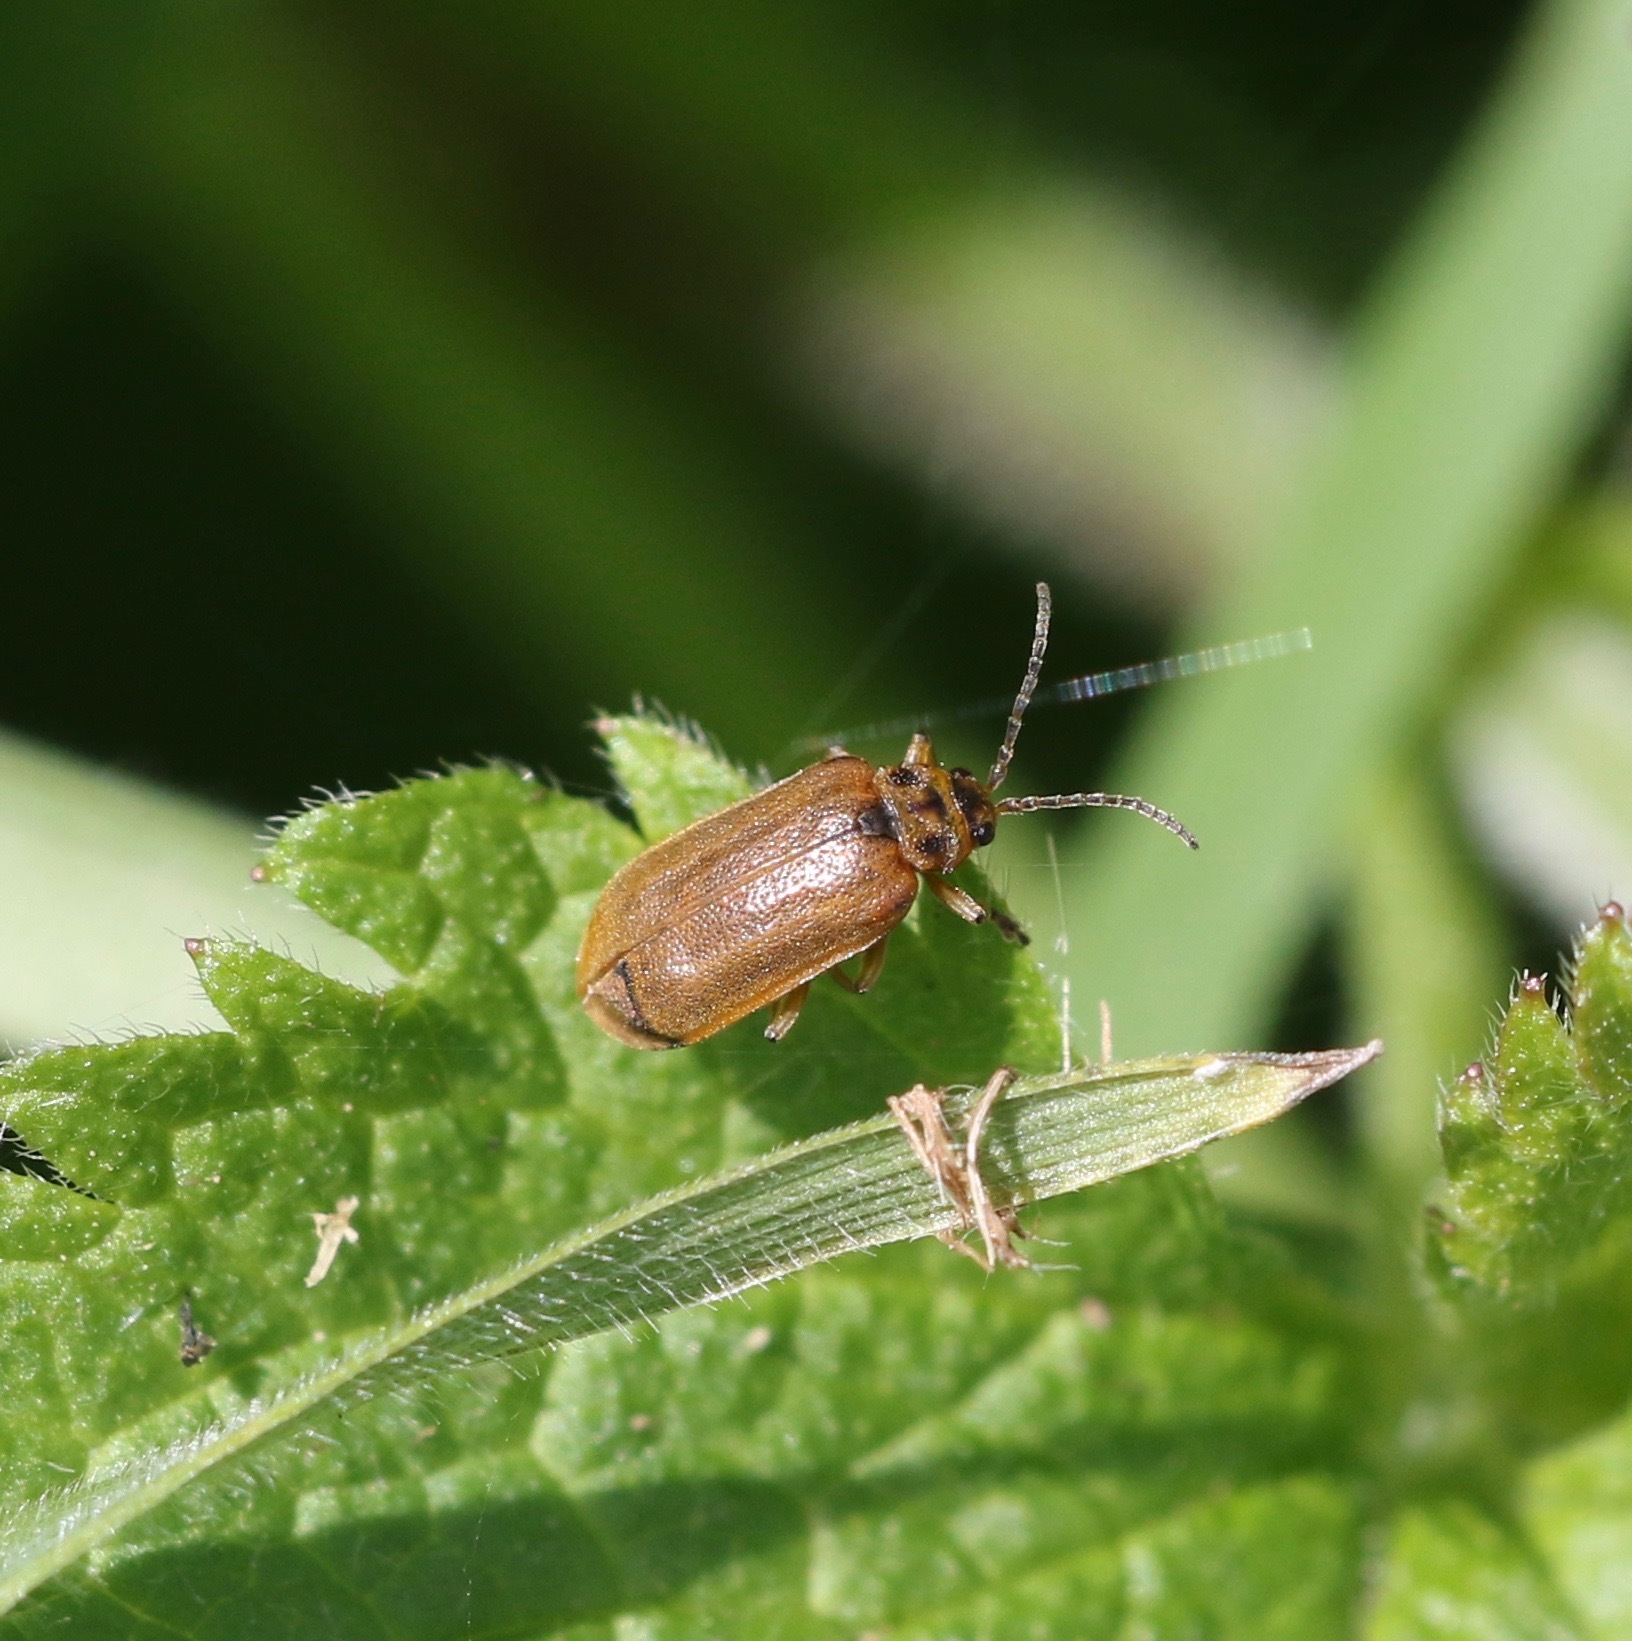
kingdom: Animalia
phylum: Arthropoda
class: Insecta
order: Coleoptera
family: Chrysomelidae
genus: Galerucella
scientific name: Galerucella nymphaeae
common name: Leaf beetle
